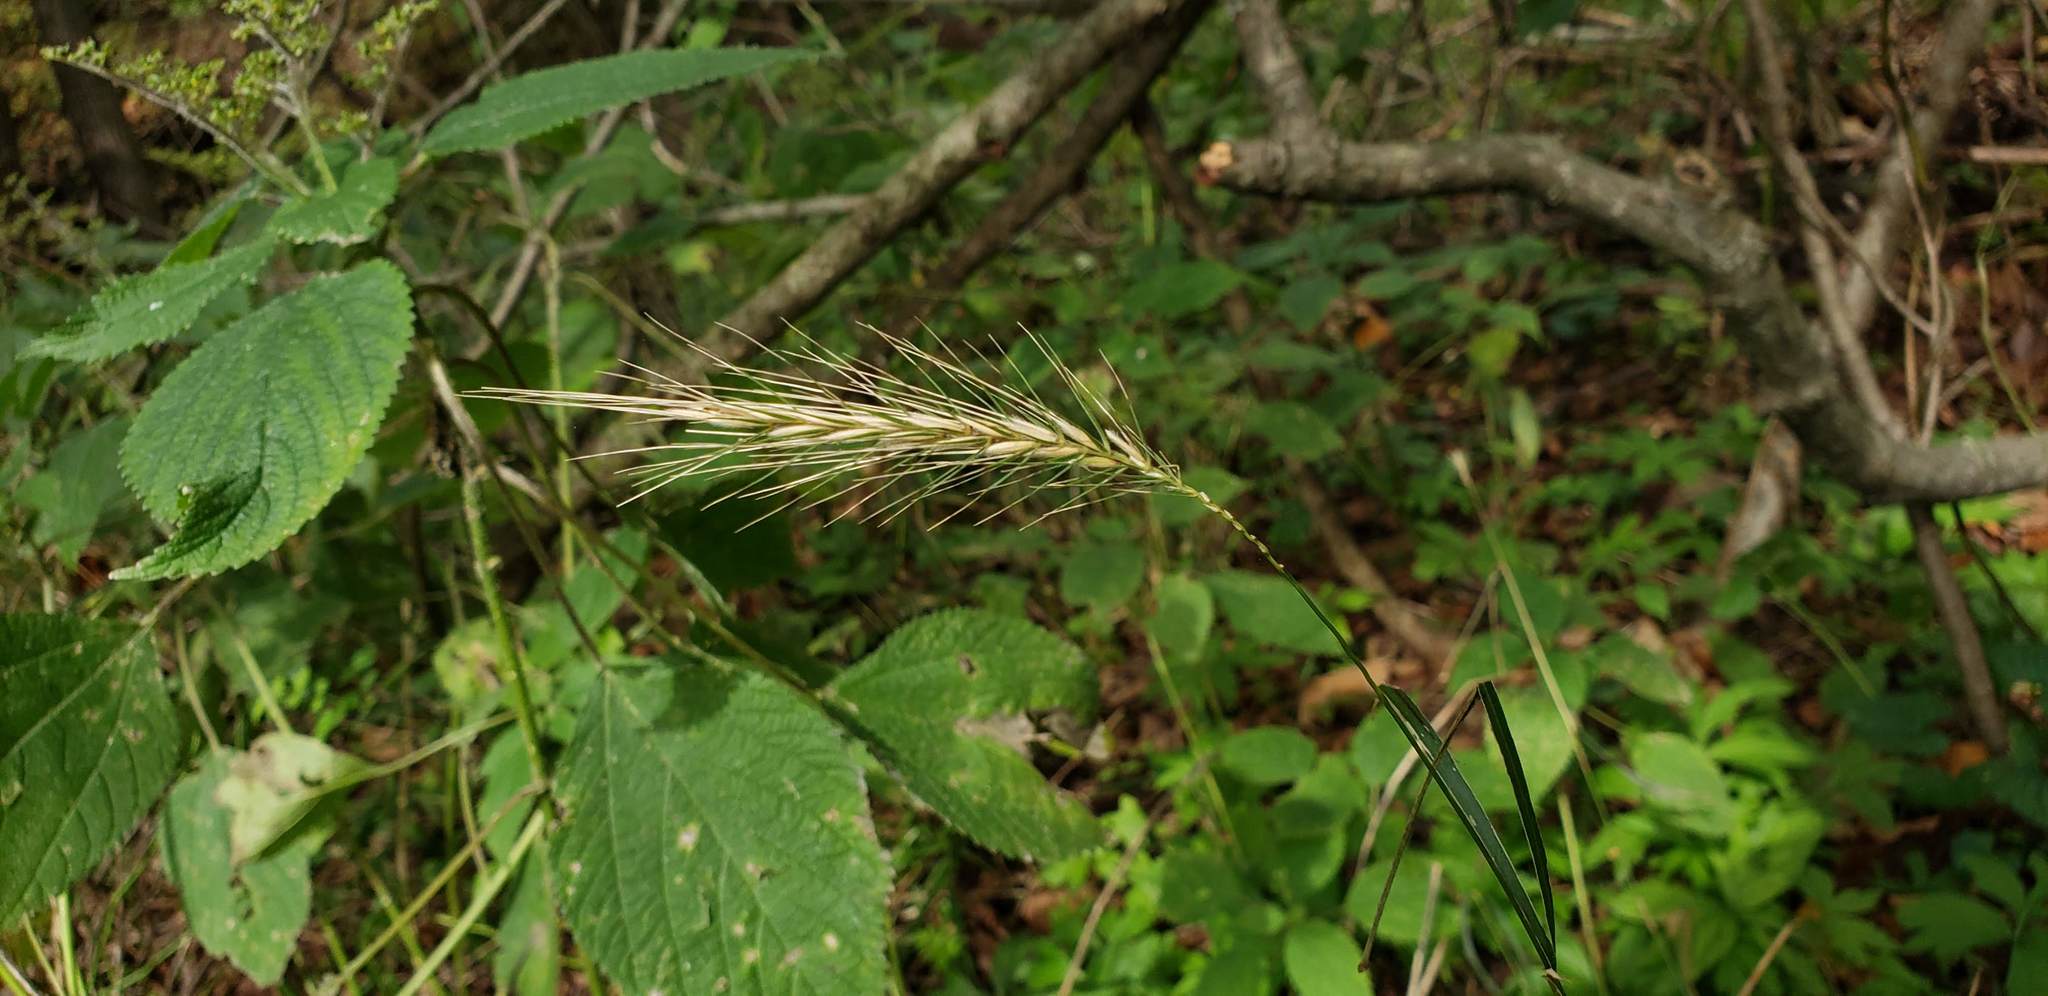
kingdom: Plantae
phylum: Tracheophyta
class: Liliopsida
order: Poales
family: Poaceae
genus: Elymus
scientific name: Elymus villosus
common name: Downy wild rye
